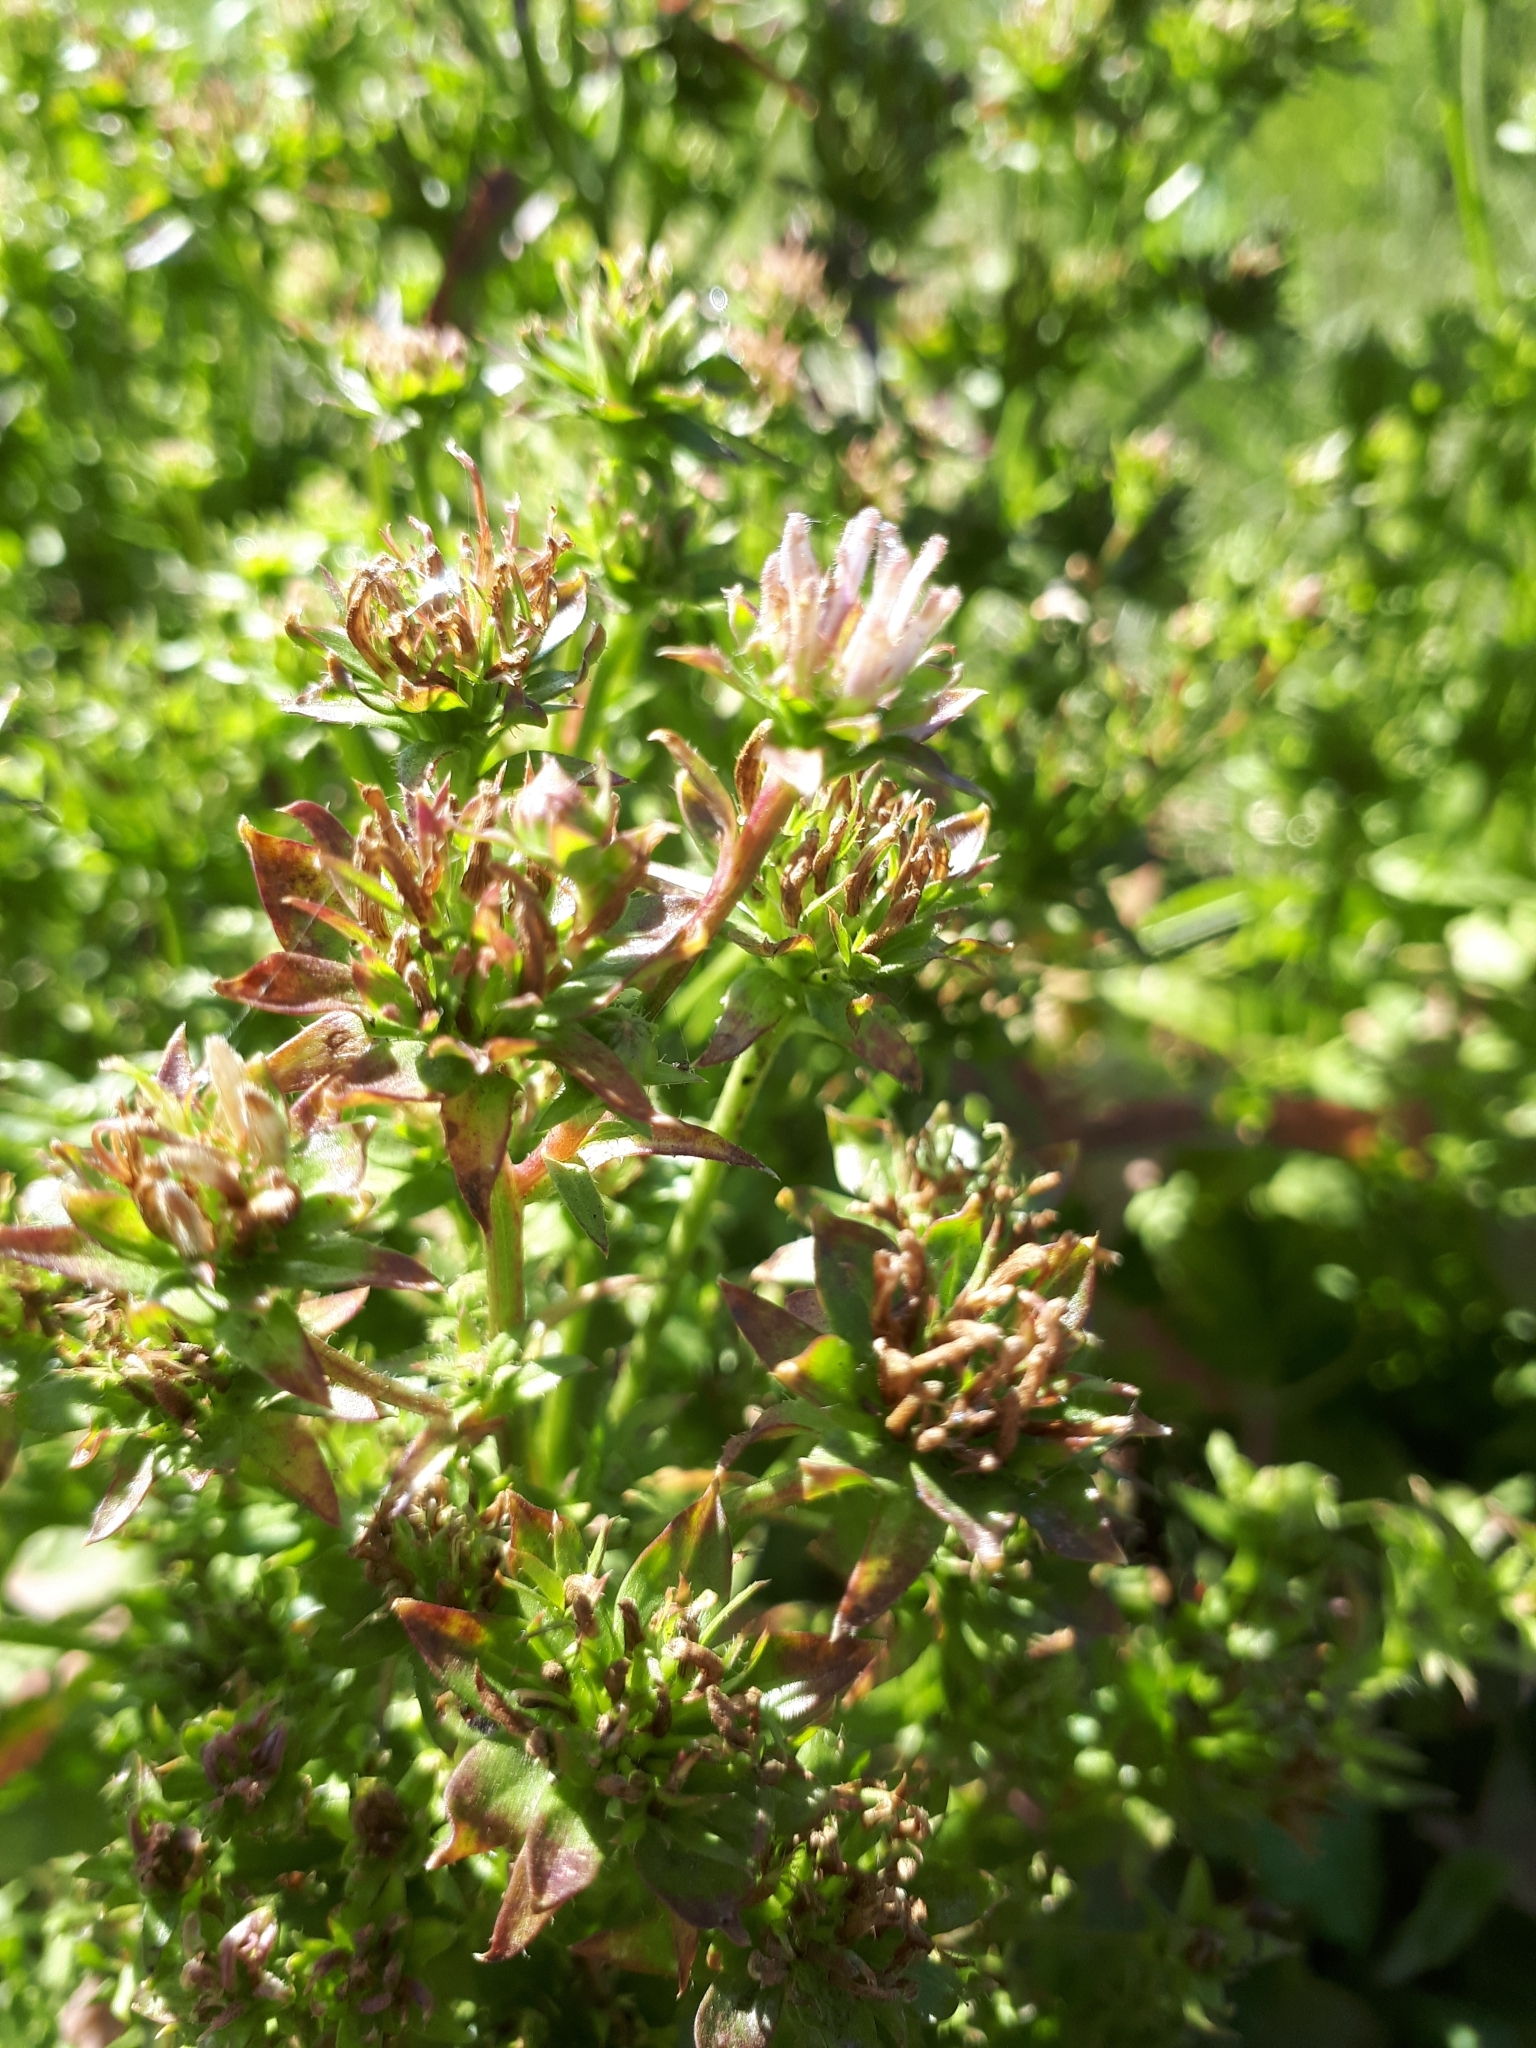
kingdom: Plantae
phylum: Tracheophyta
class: Magnoliopsida
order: Asterales
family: Asteraceae
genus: Cichorium
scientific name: Cichorium intybus
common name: Chicory
